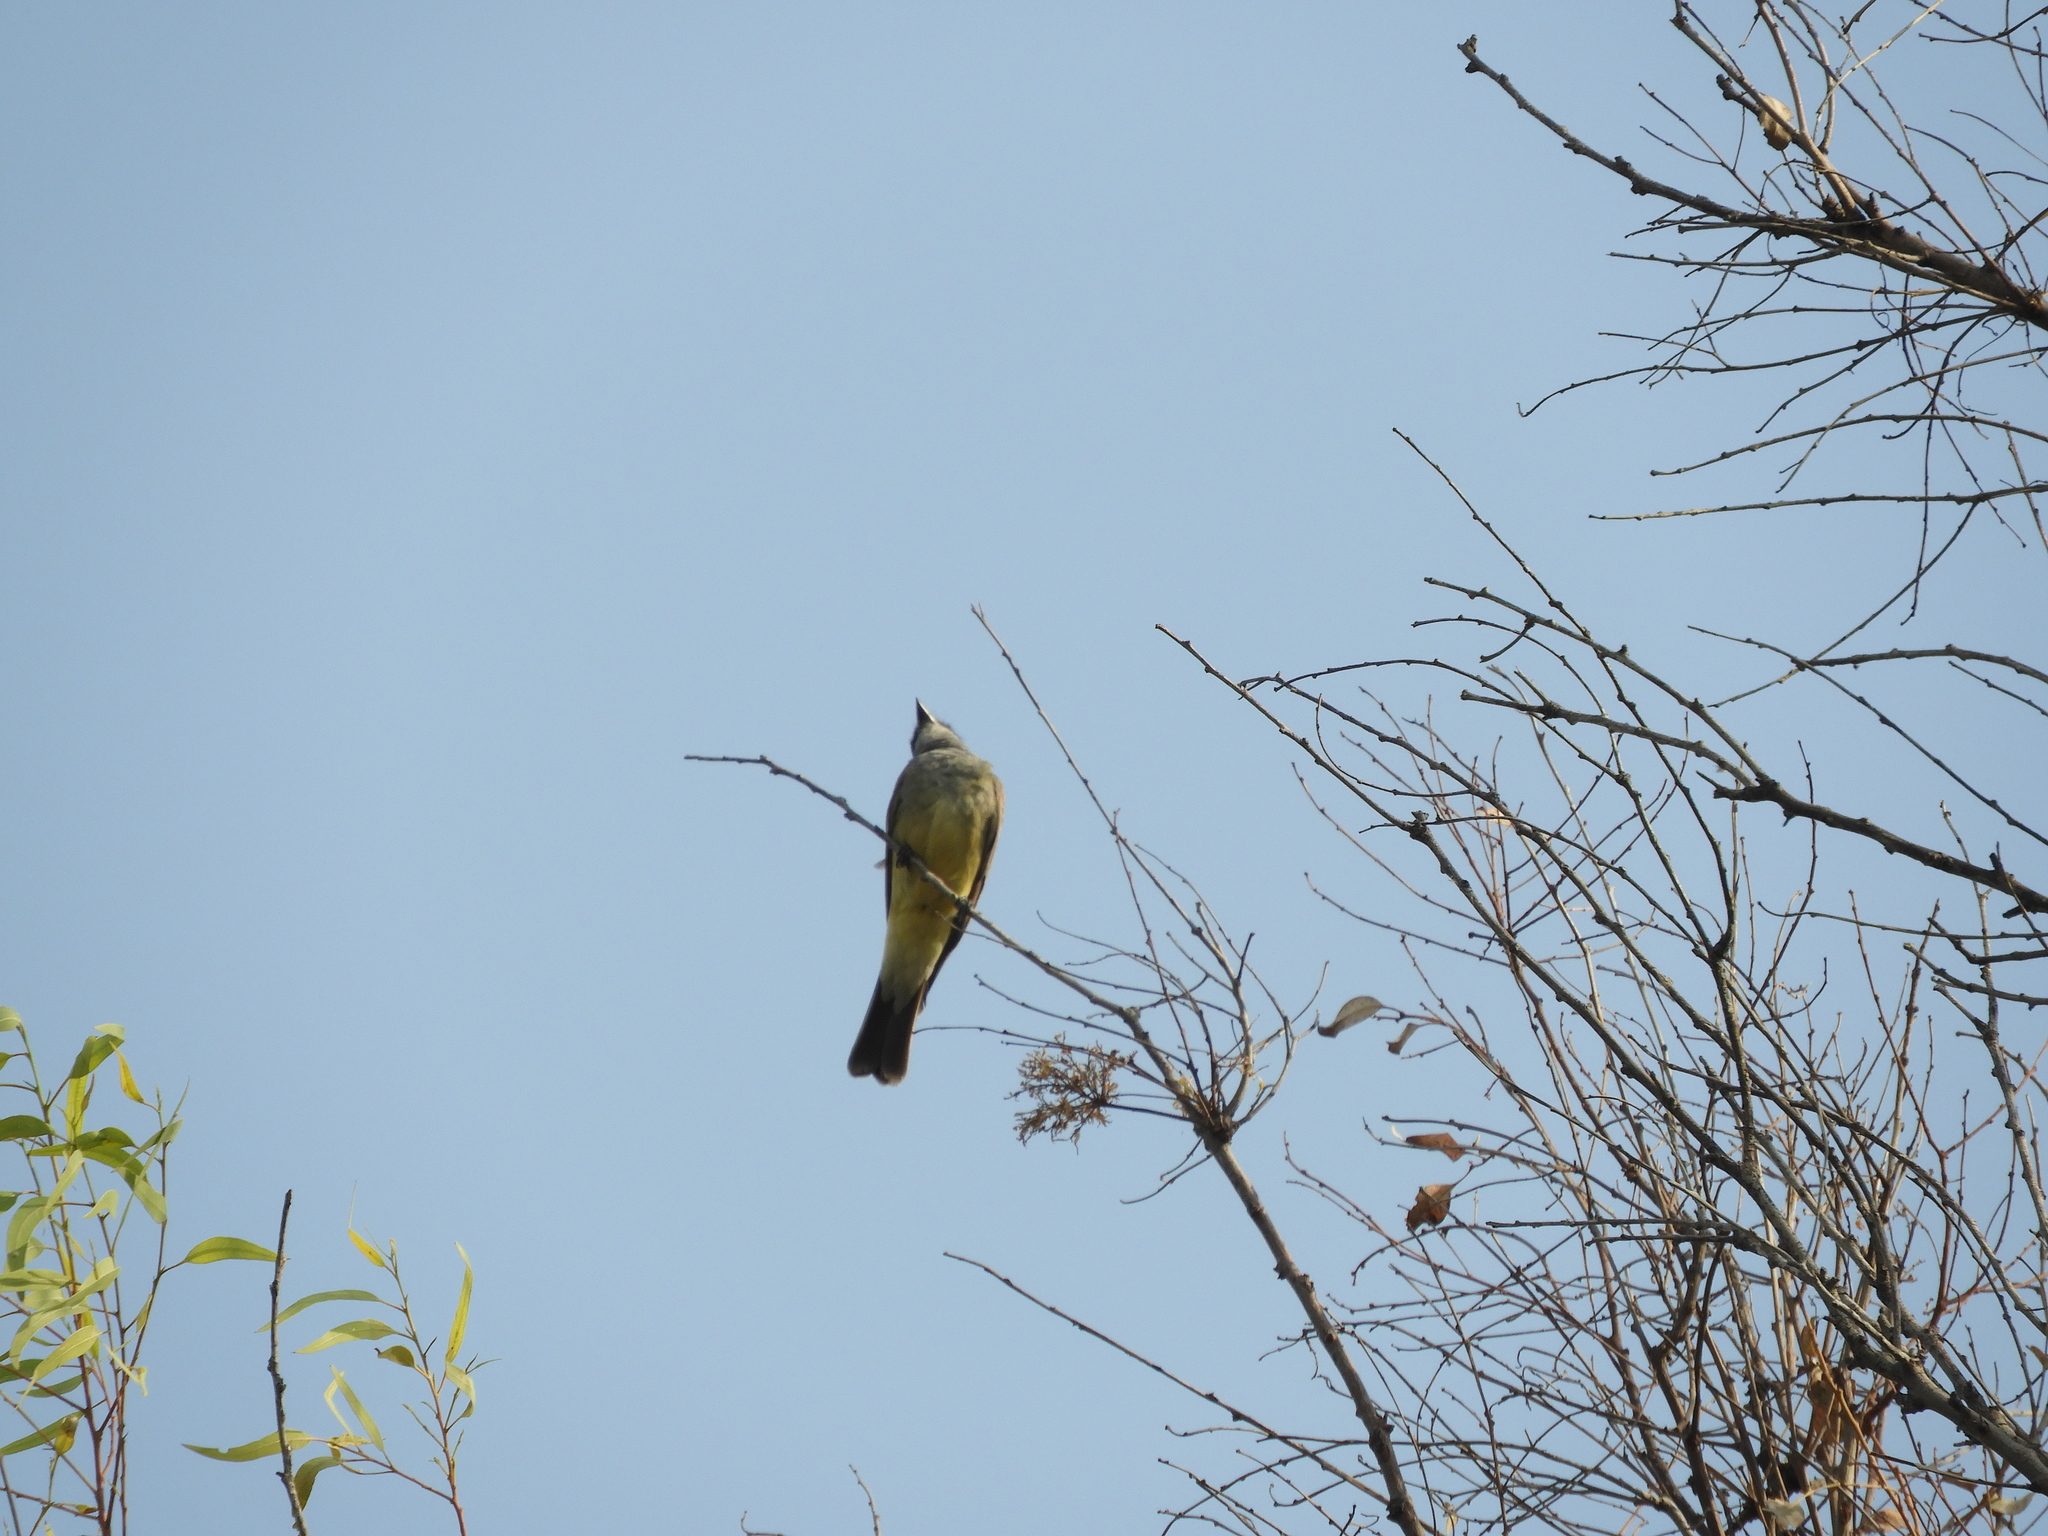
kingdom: Animalia
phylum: Chordata
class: Aves
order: Passeriformes
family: Tyrannidae
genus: Tyrannus
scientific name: Tyrannus vociferans
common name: Cassin's kingbird
